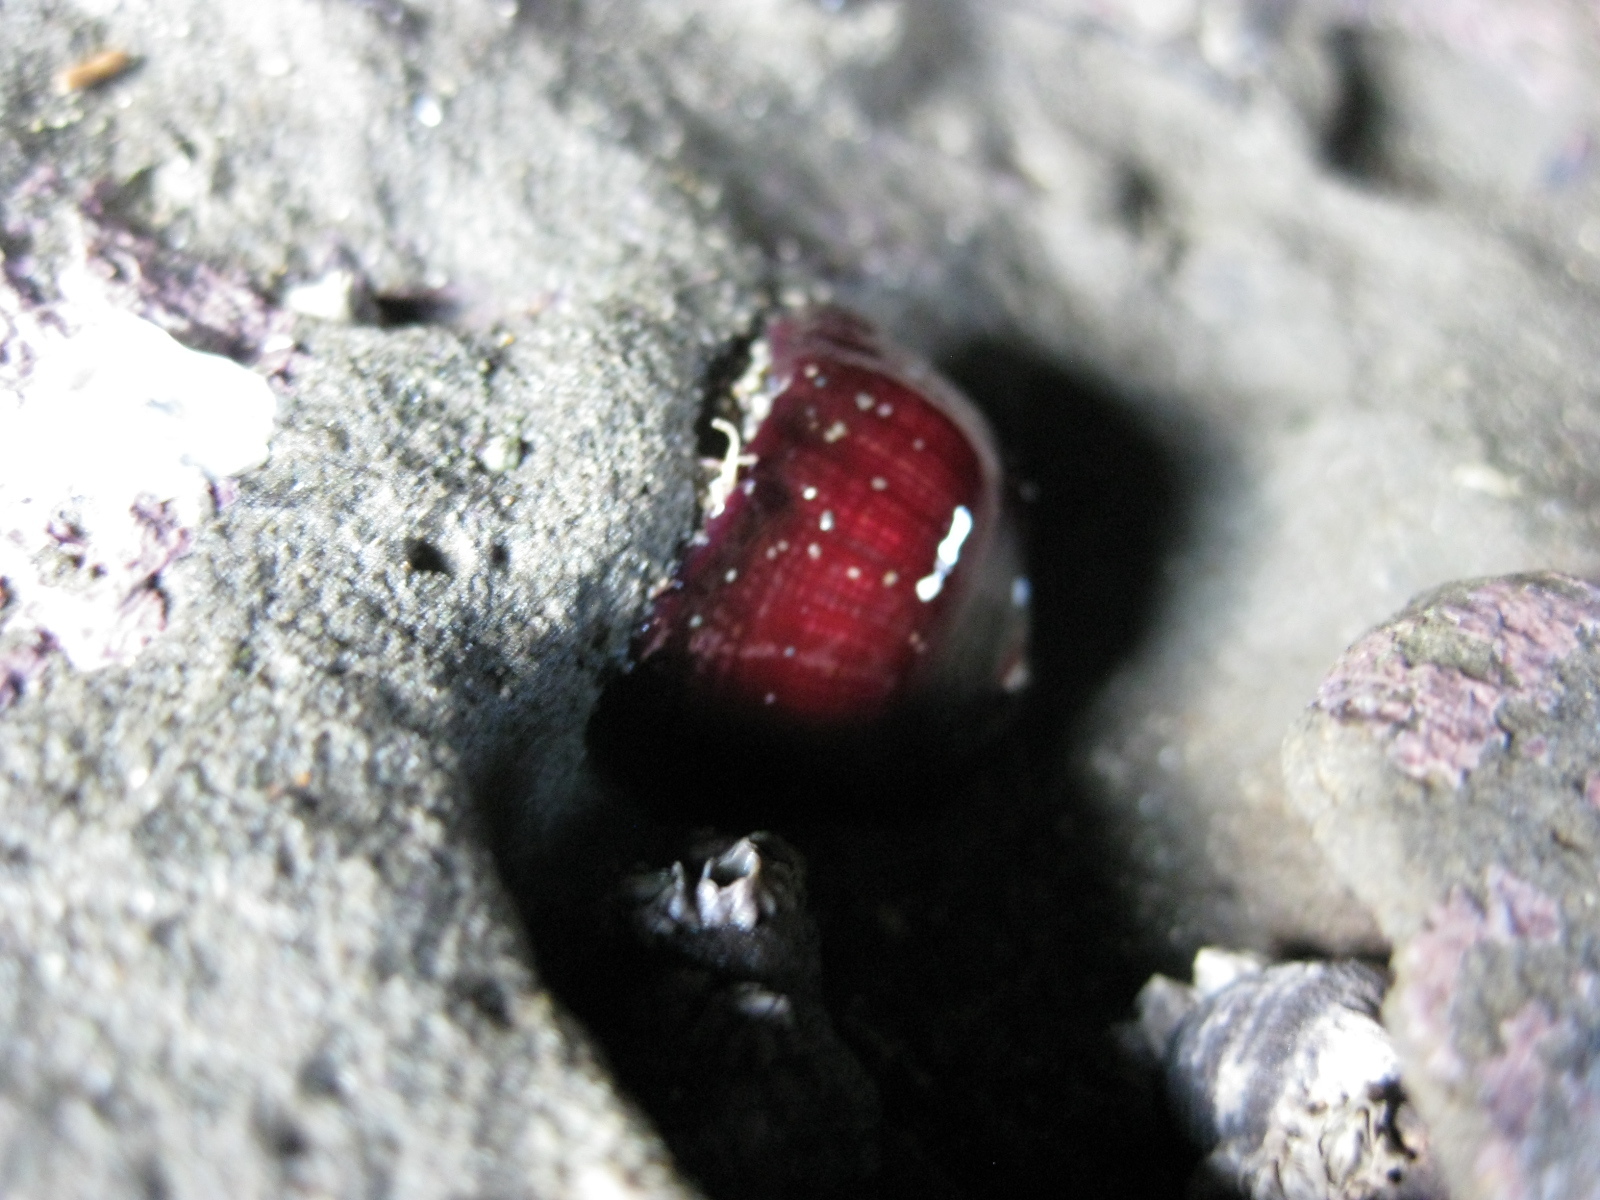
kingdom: Animalia
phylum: Cnidaria
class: Anthozoa
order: Actiniaria
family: Actiniidae
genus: Actinia
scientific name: Actinia tenebrosa
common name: Waratah anemone
